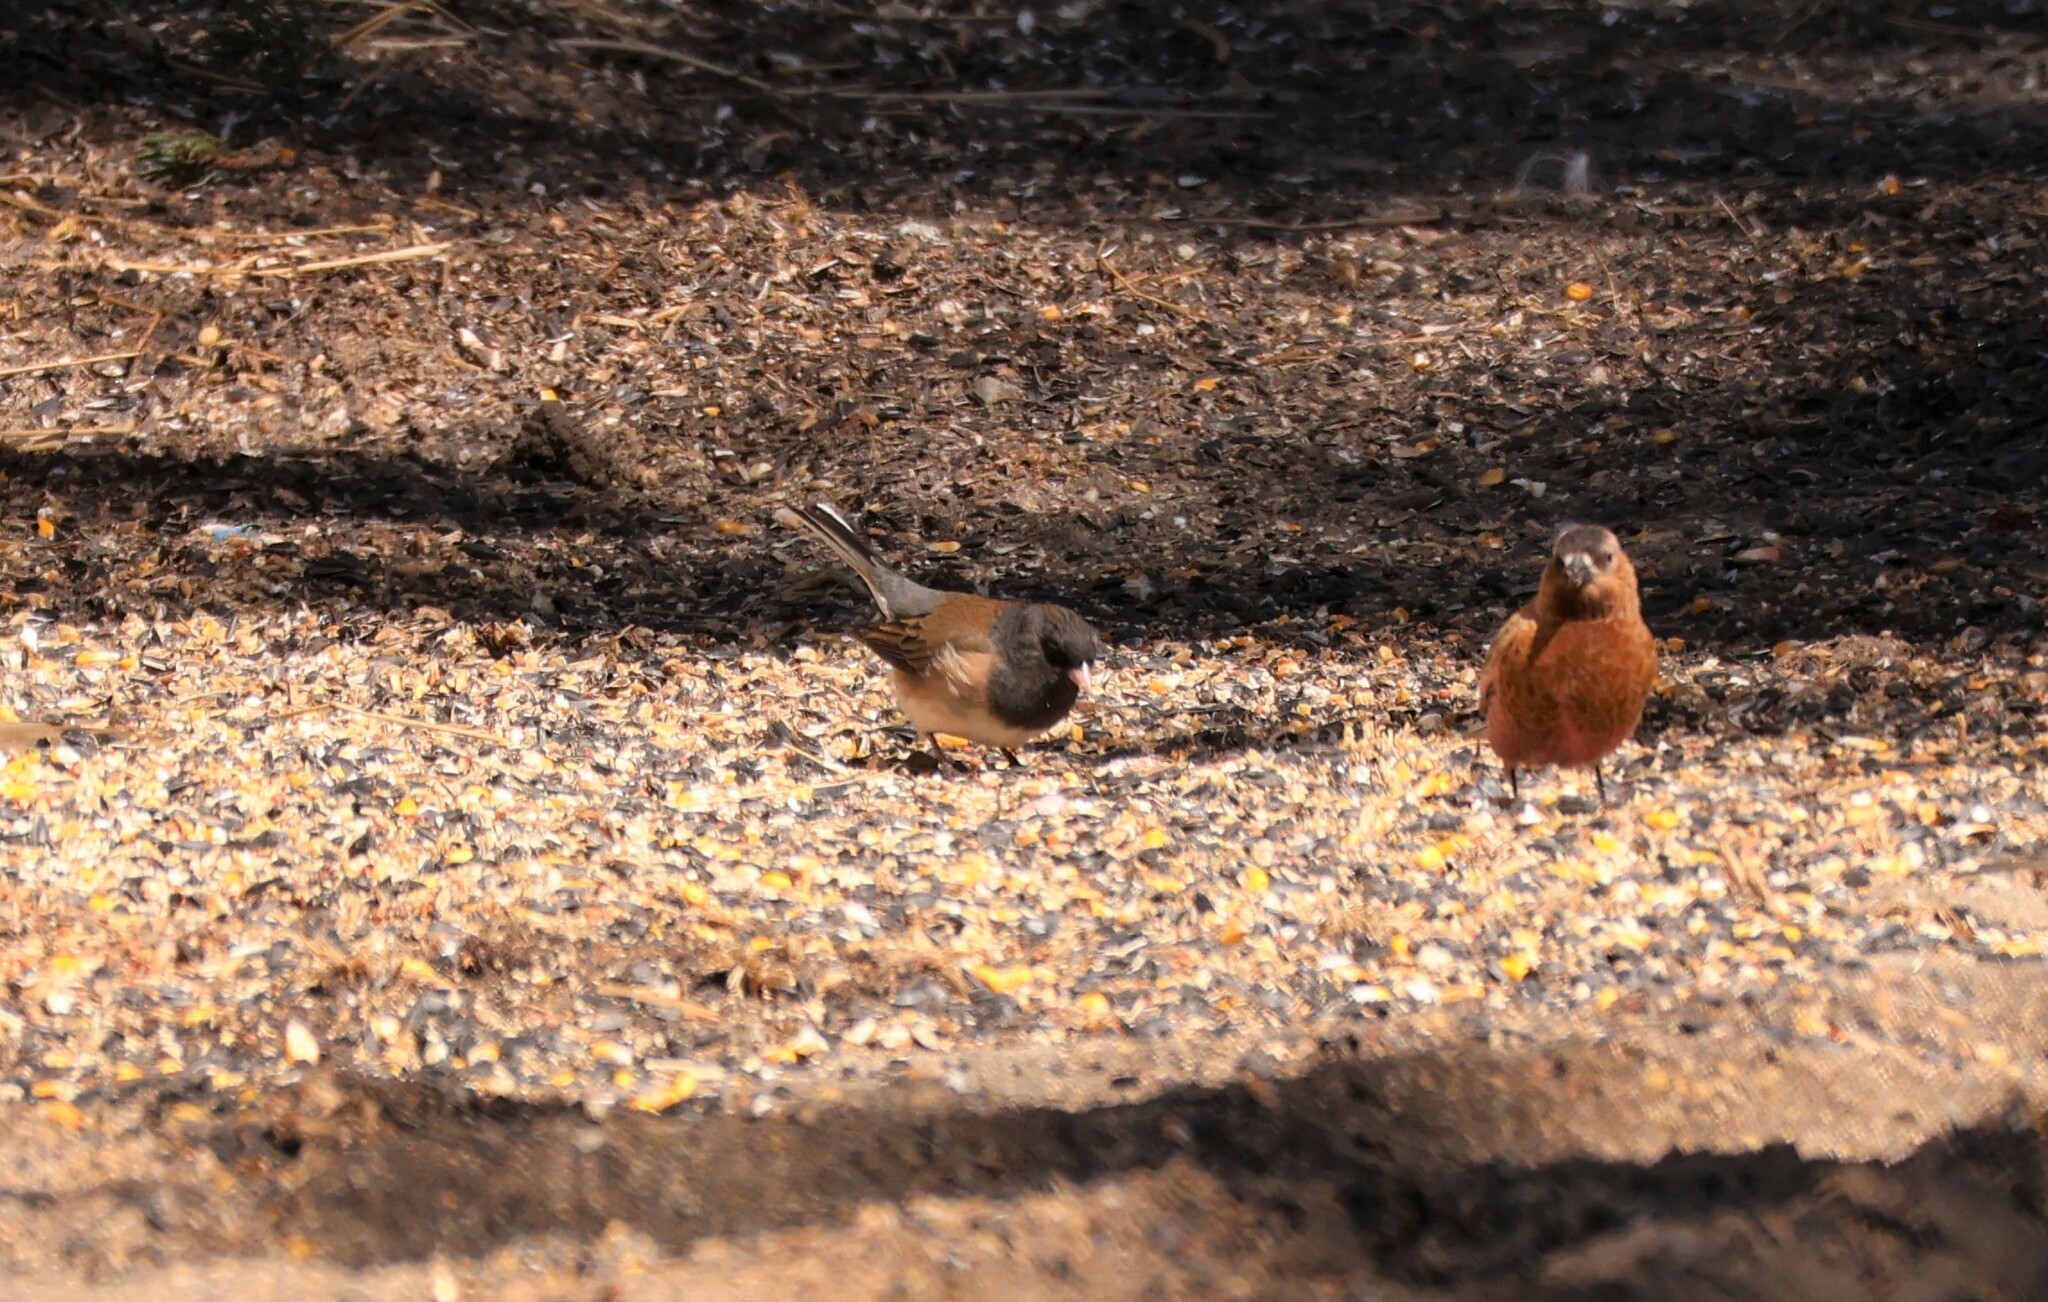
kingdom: Animalia
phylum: Chordata
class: Aves
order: Passeriformes
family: Passerellidae
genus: Junco
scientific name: Junco hyemalis
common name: Dark-eyed junco
